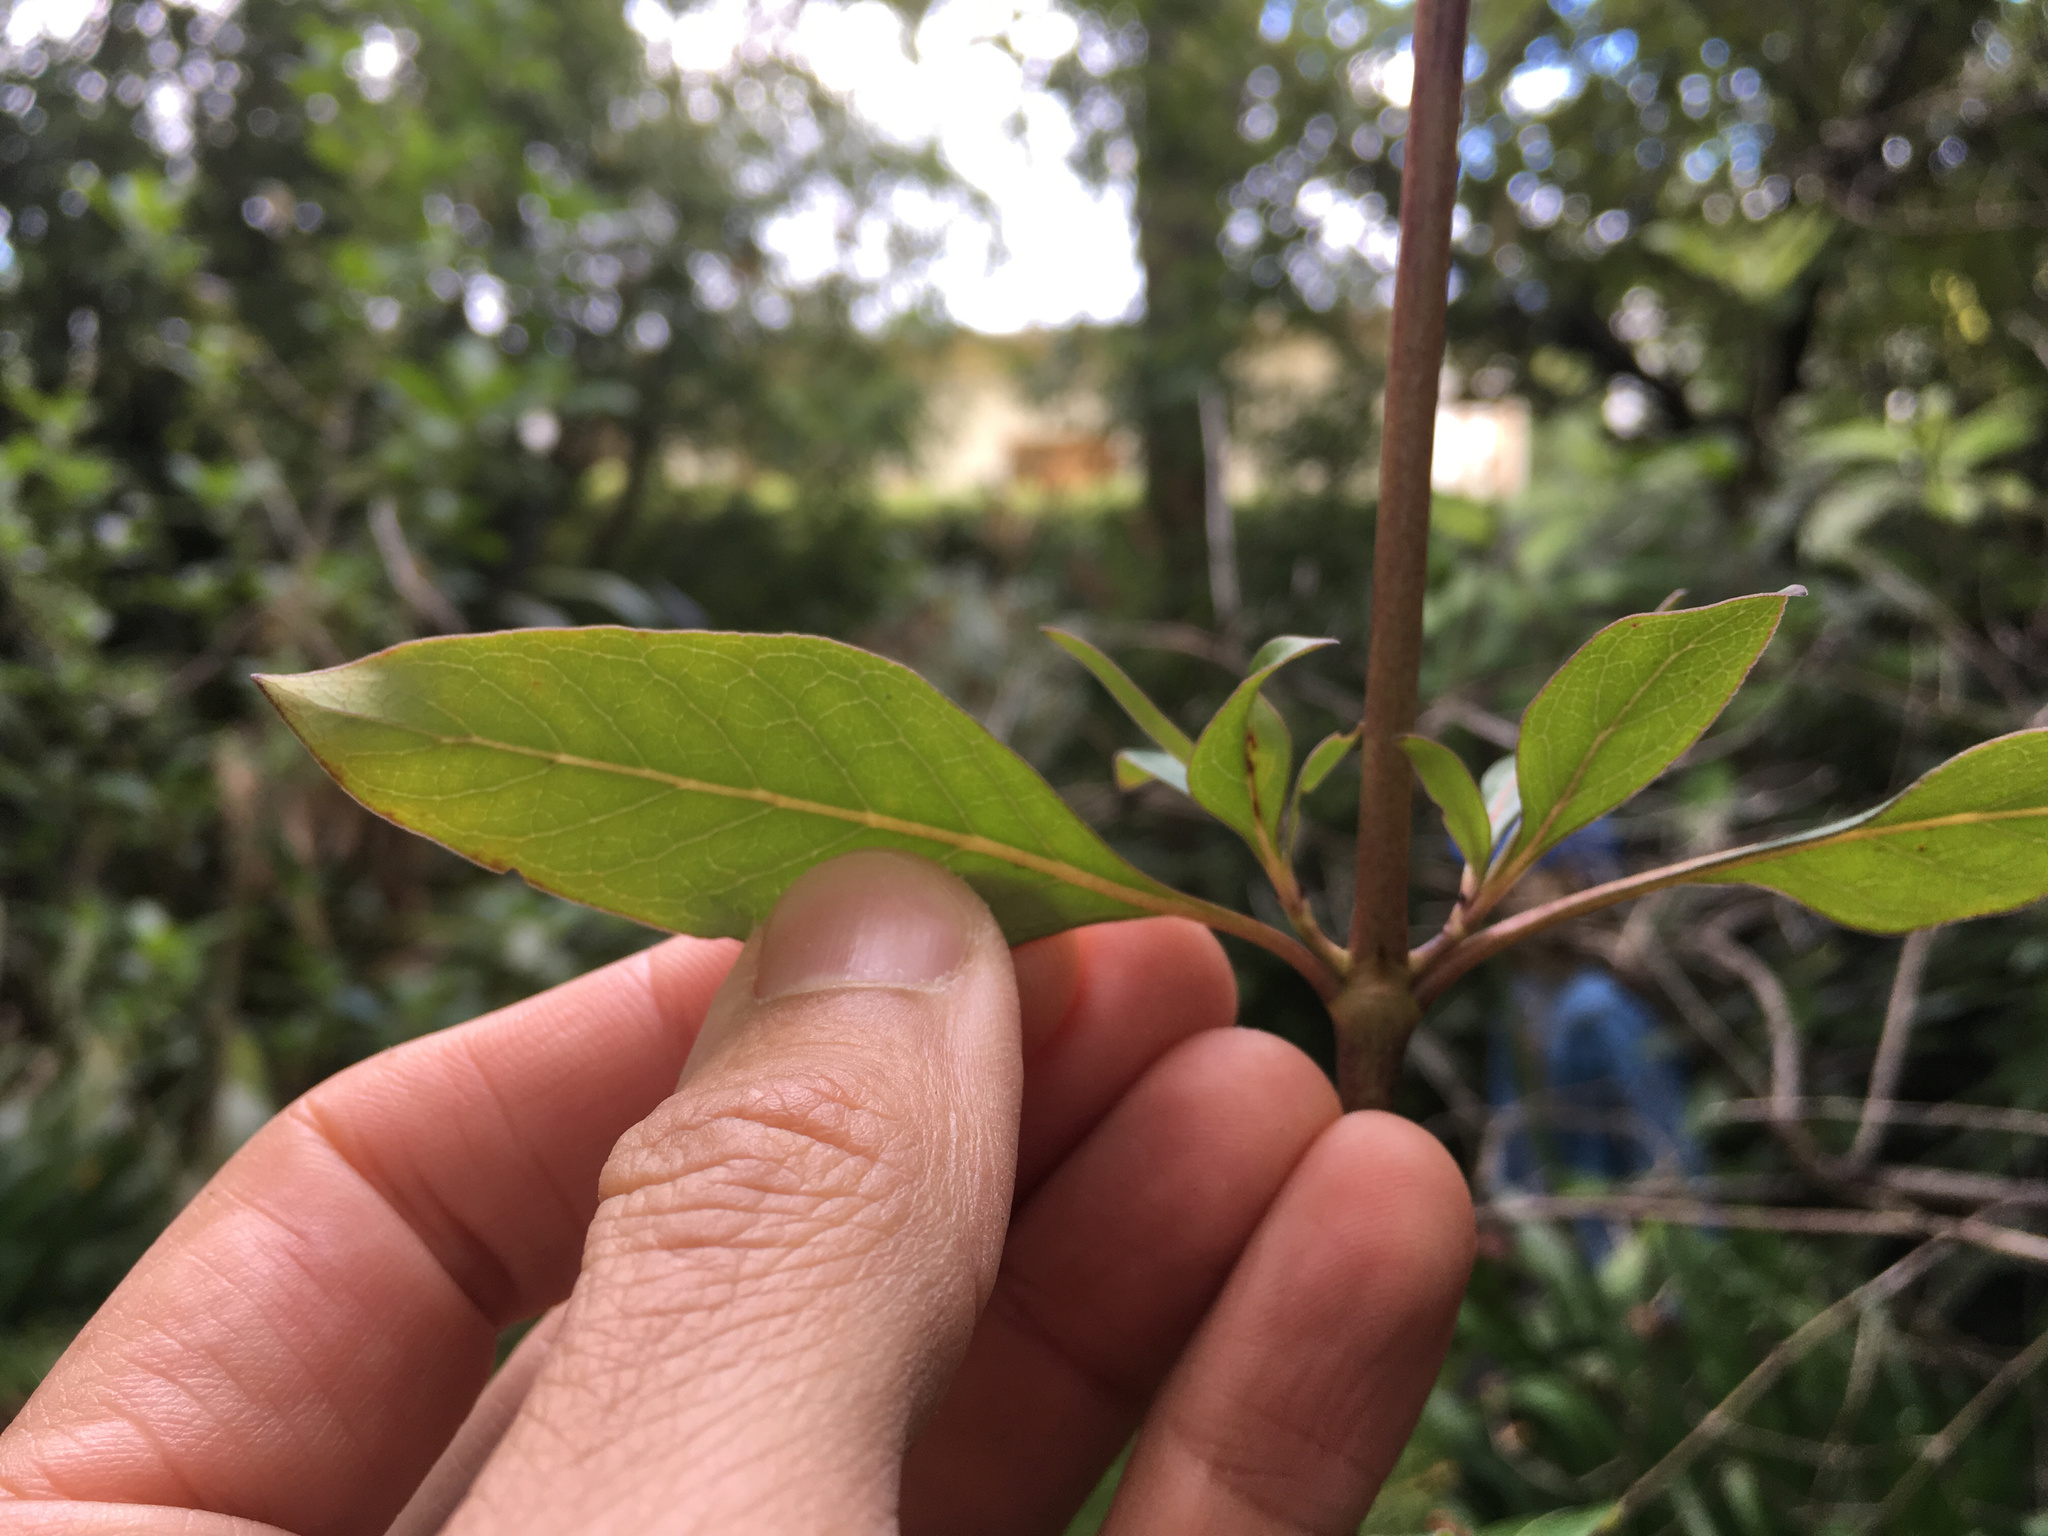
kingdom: Plantae
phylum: Tracheophyta
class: Magnoliopsida
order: Gentianales
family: Rubiaceae
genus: Coprosma
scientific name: Coprosma robusta
